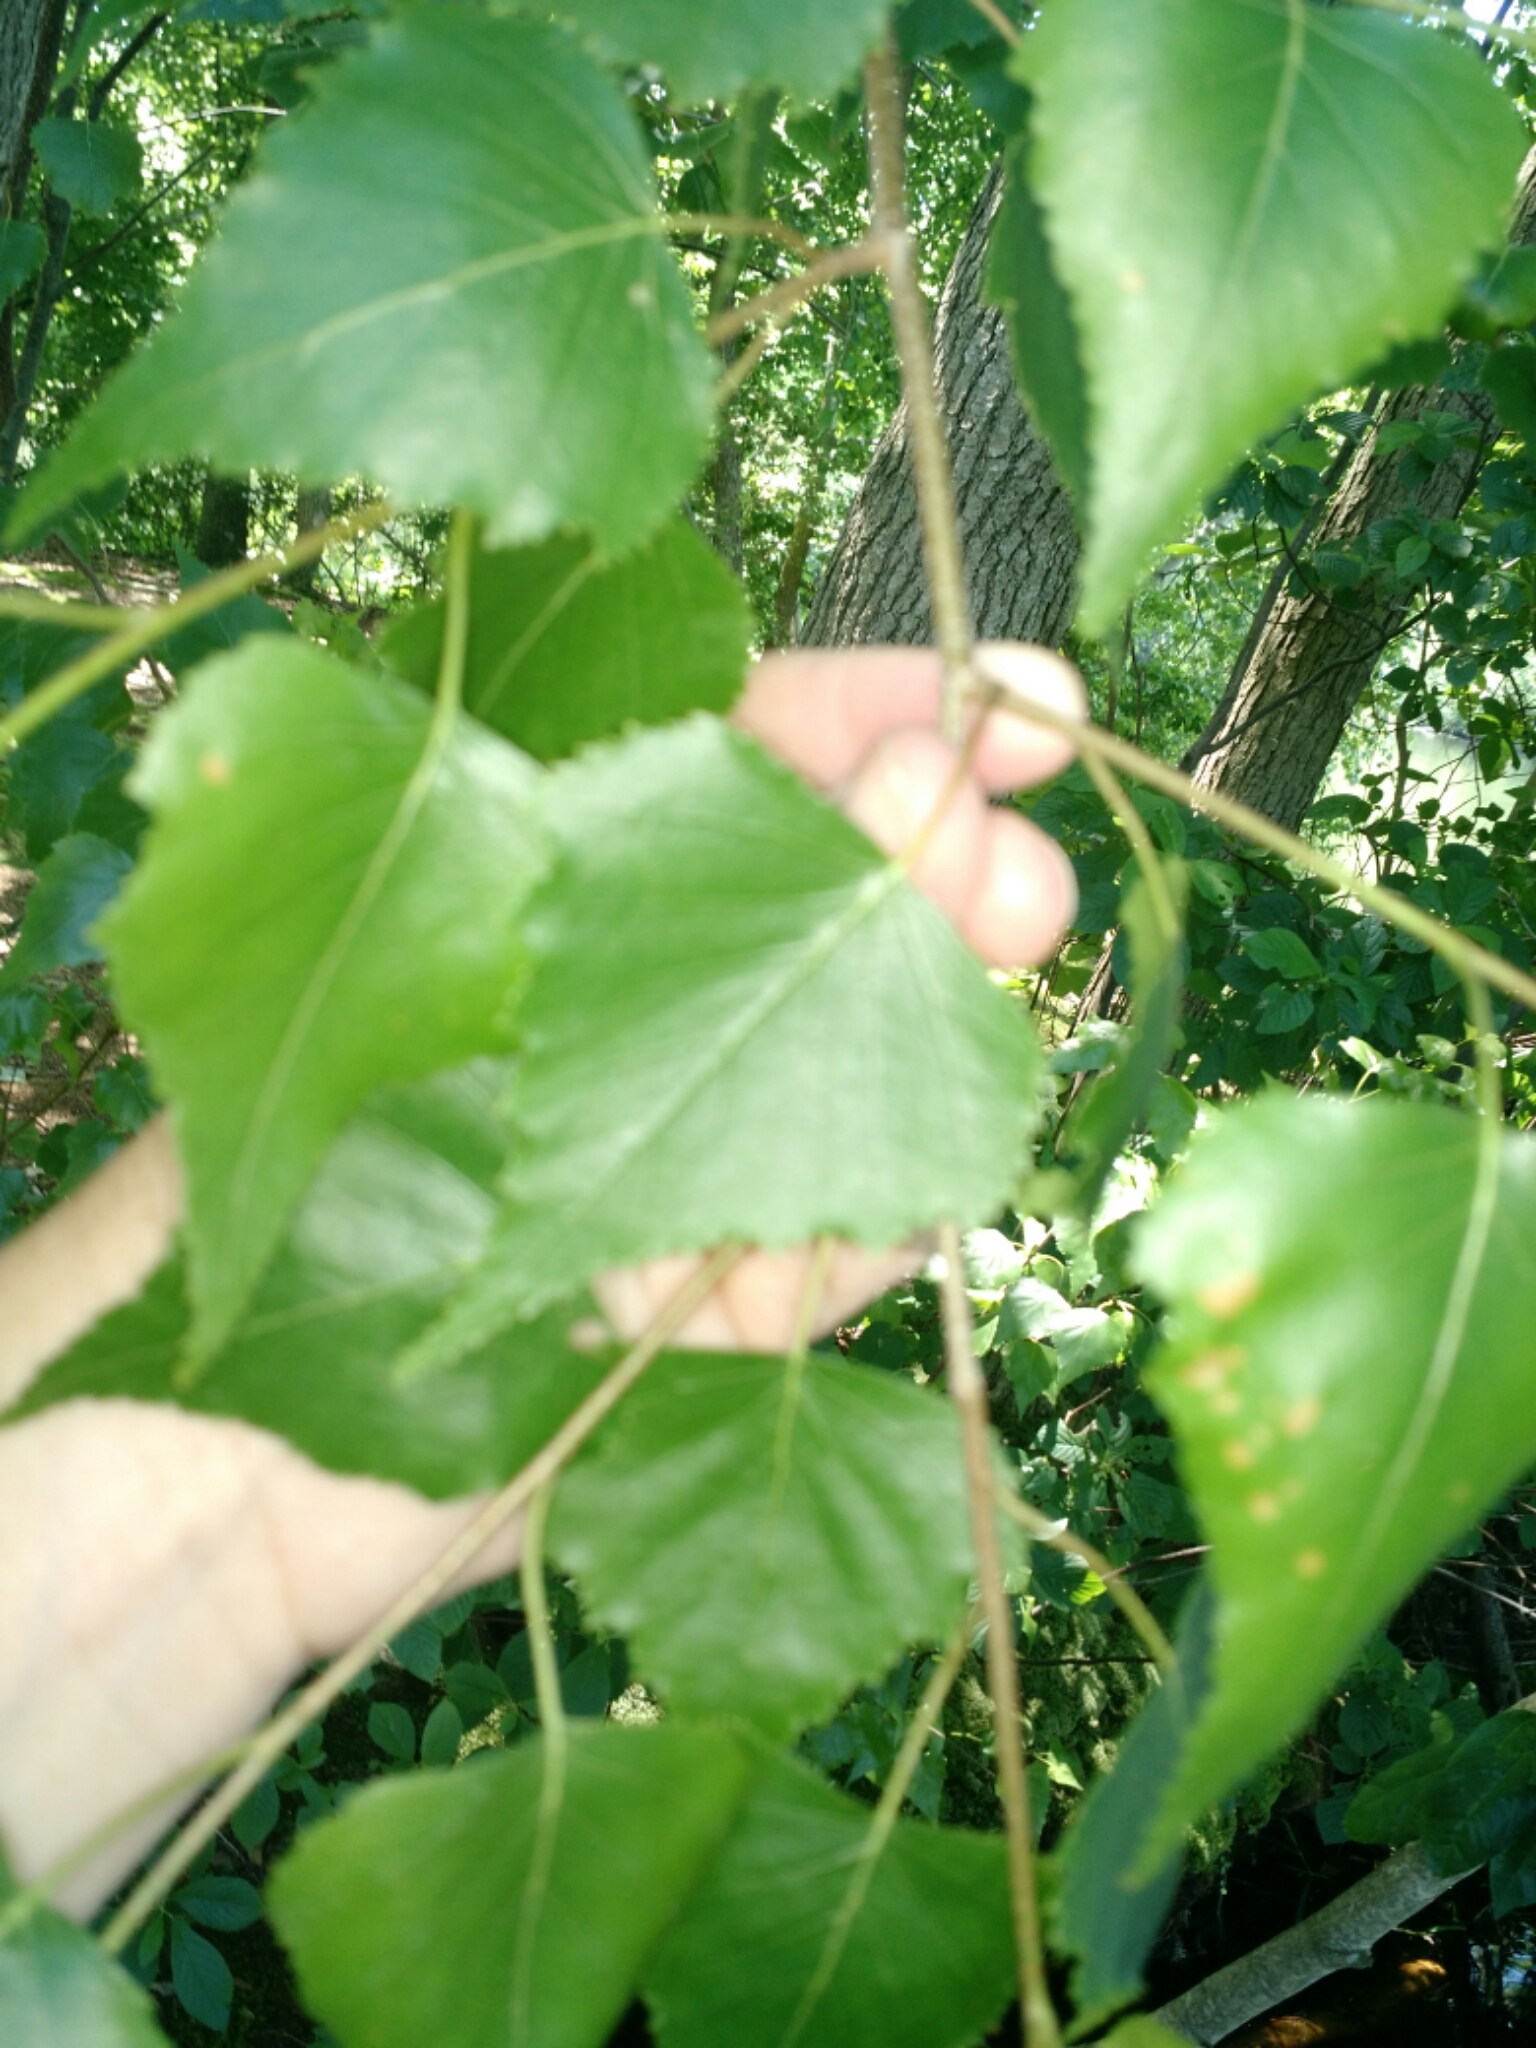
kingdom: Plantae
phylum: Tracheophyta
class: Magnoliopsida
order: Fagales
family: Betulaceae
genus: Betula
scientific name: Betula populifolia
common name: Fire birch
